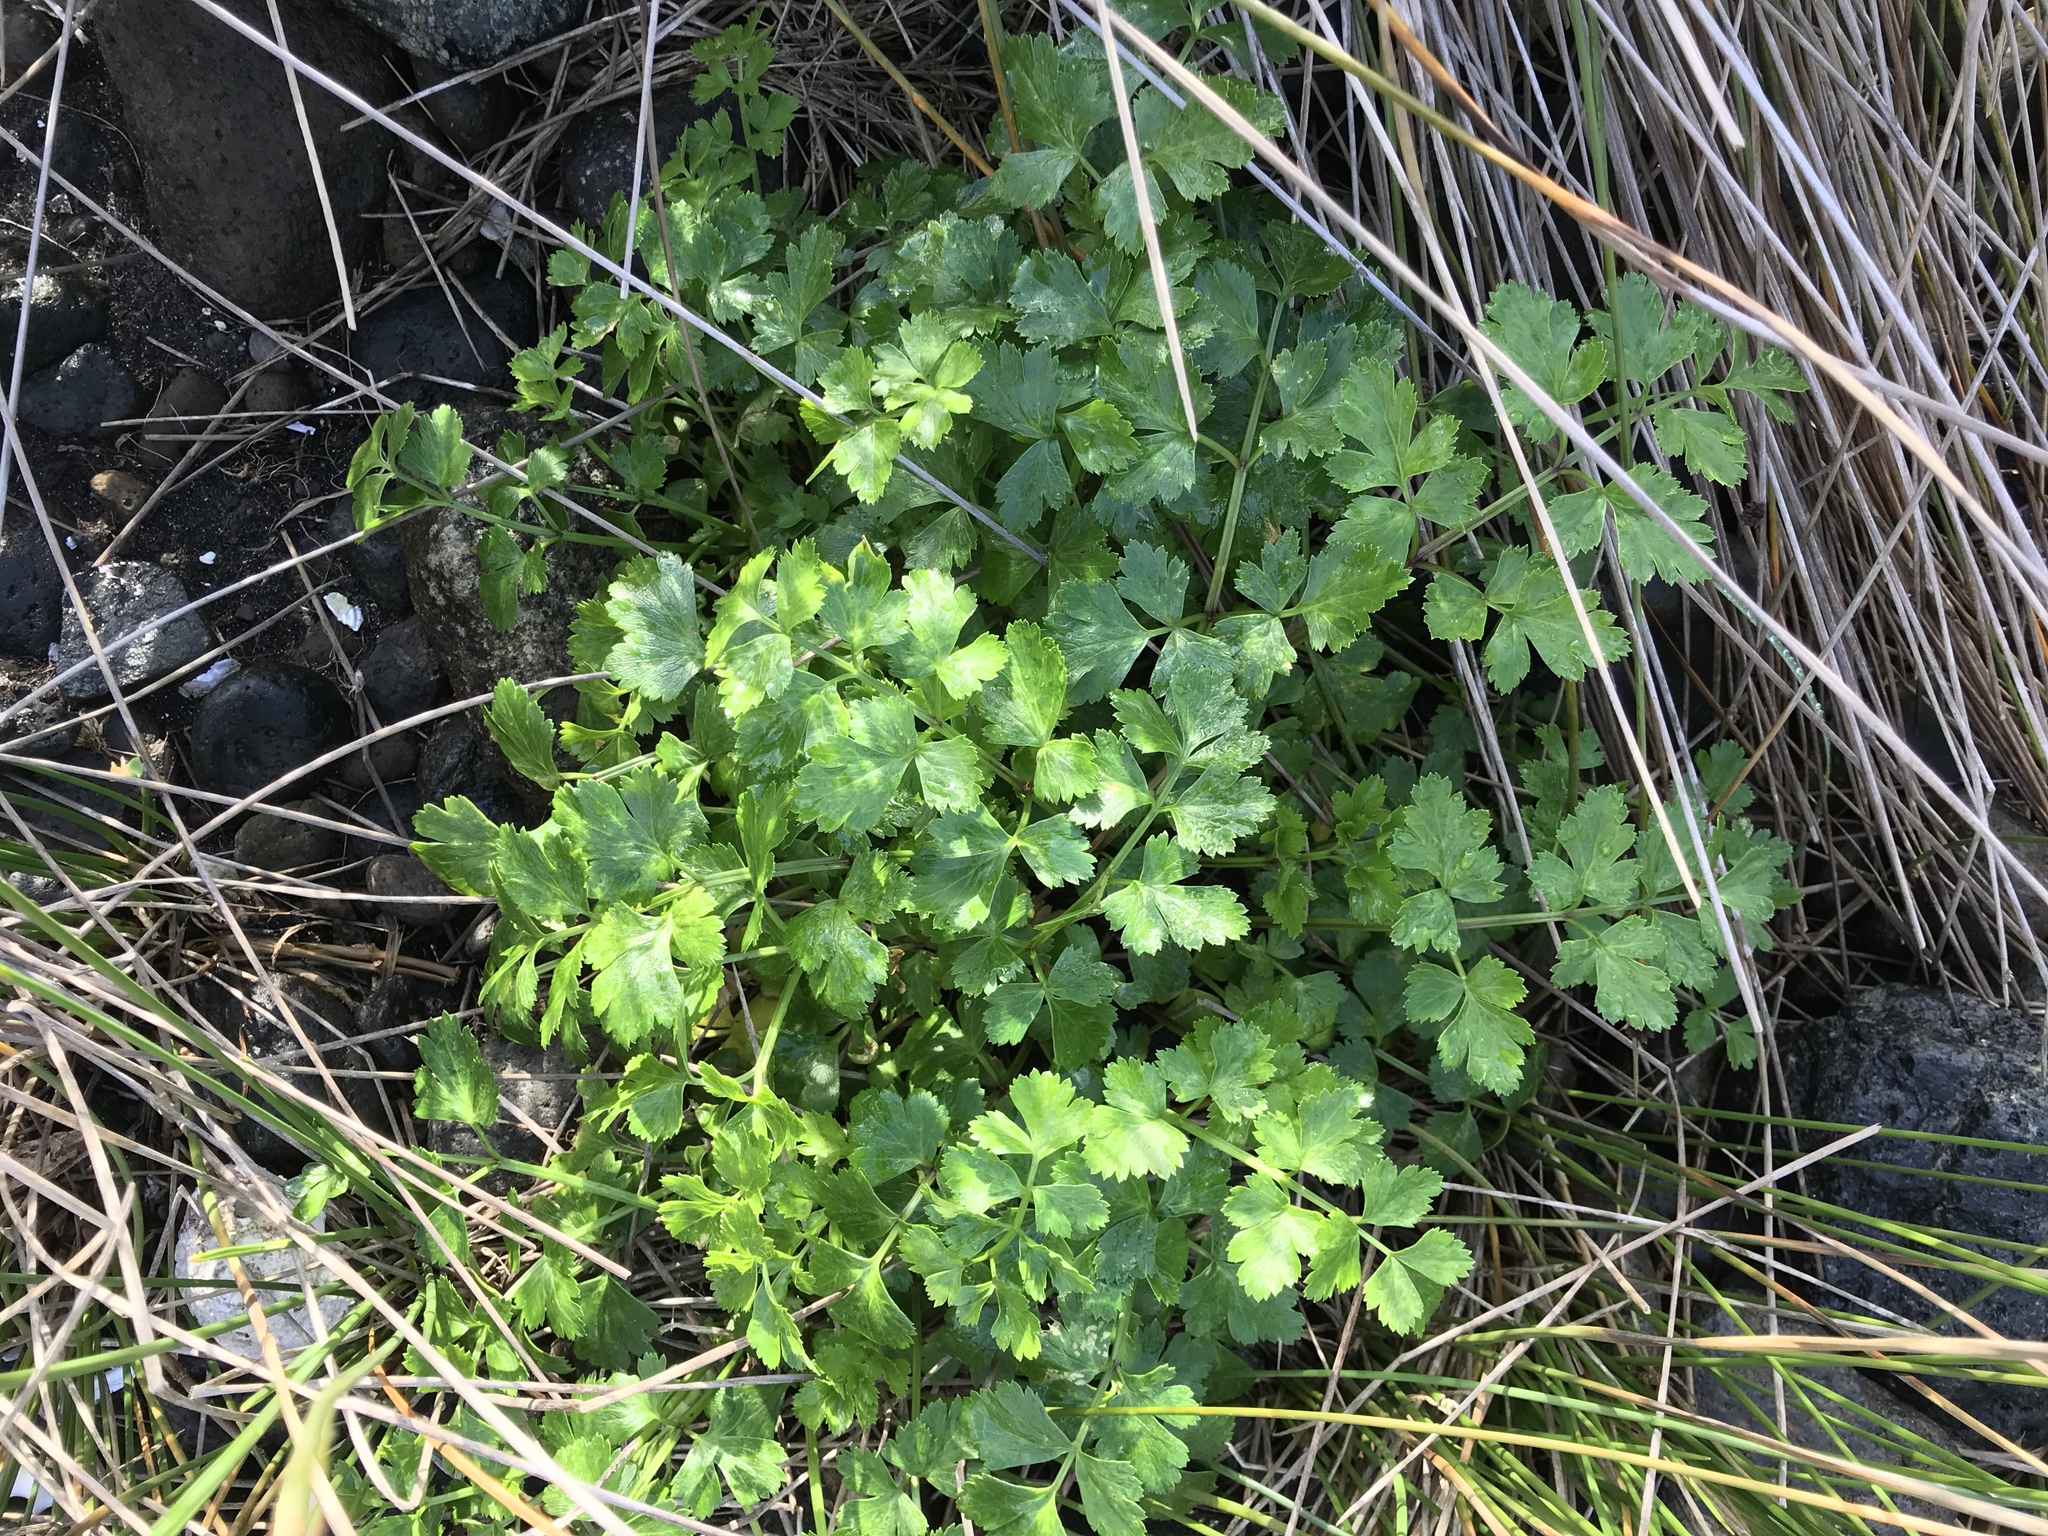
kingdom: Plantae
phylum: Tracheophyta
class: Magnoliopsida
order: Apiales
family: Apiaceae
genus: Apium
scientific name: Apium prostratum
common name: Prostrate marshwort
